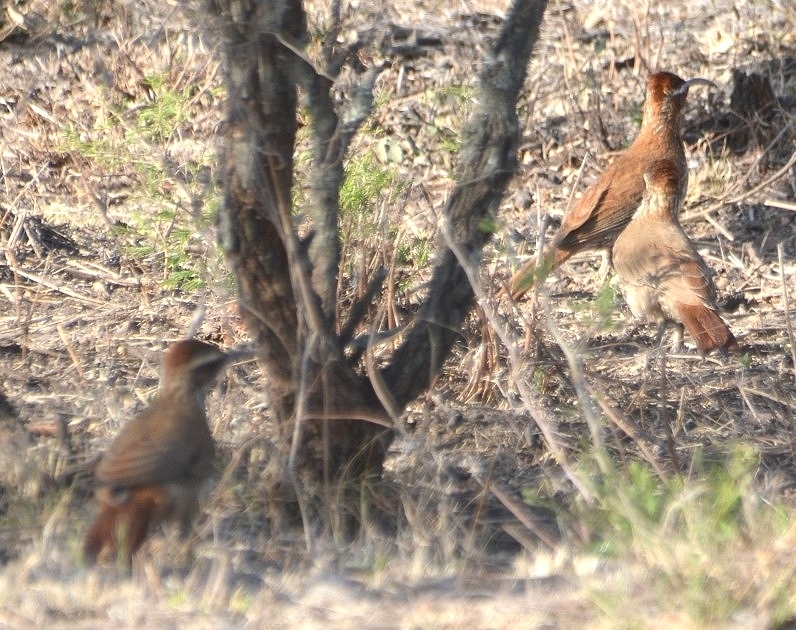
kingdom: Animalia
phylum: Chordata
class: Aves
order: Passeriformes
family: Furnariidae
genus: Drymornis
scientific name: Drymornis bridgesii
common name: Scimitar-billed woodcreeper
